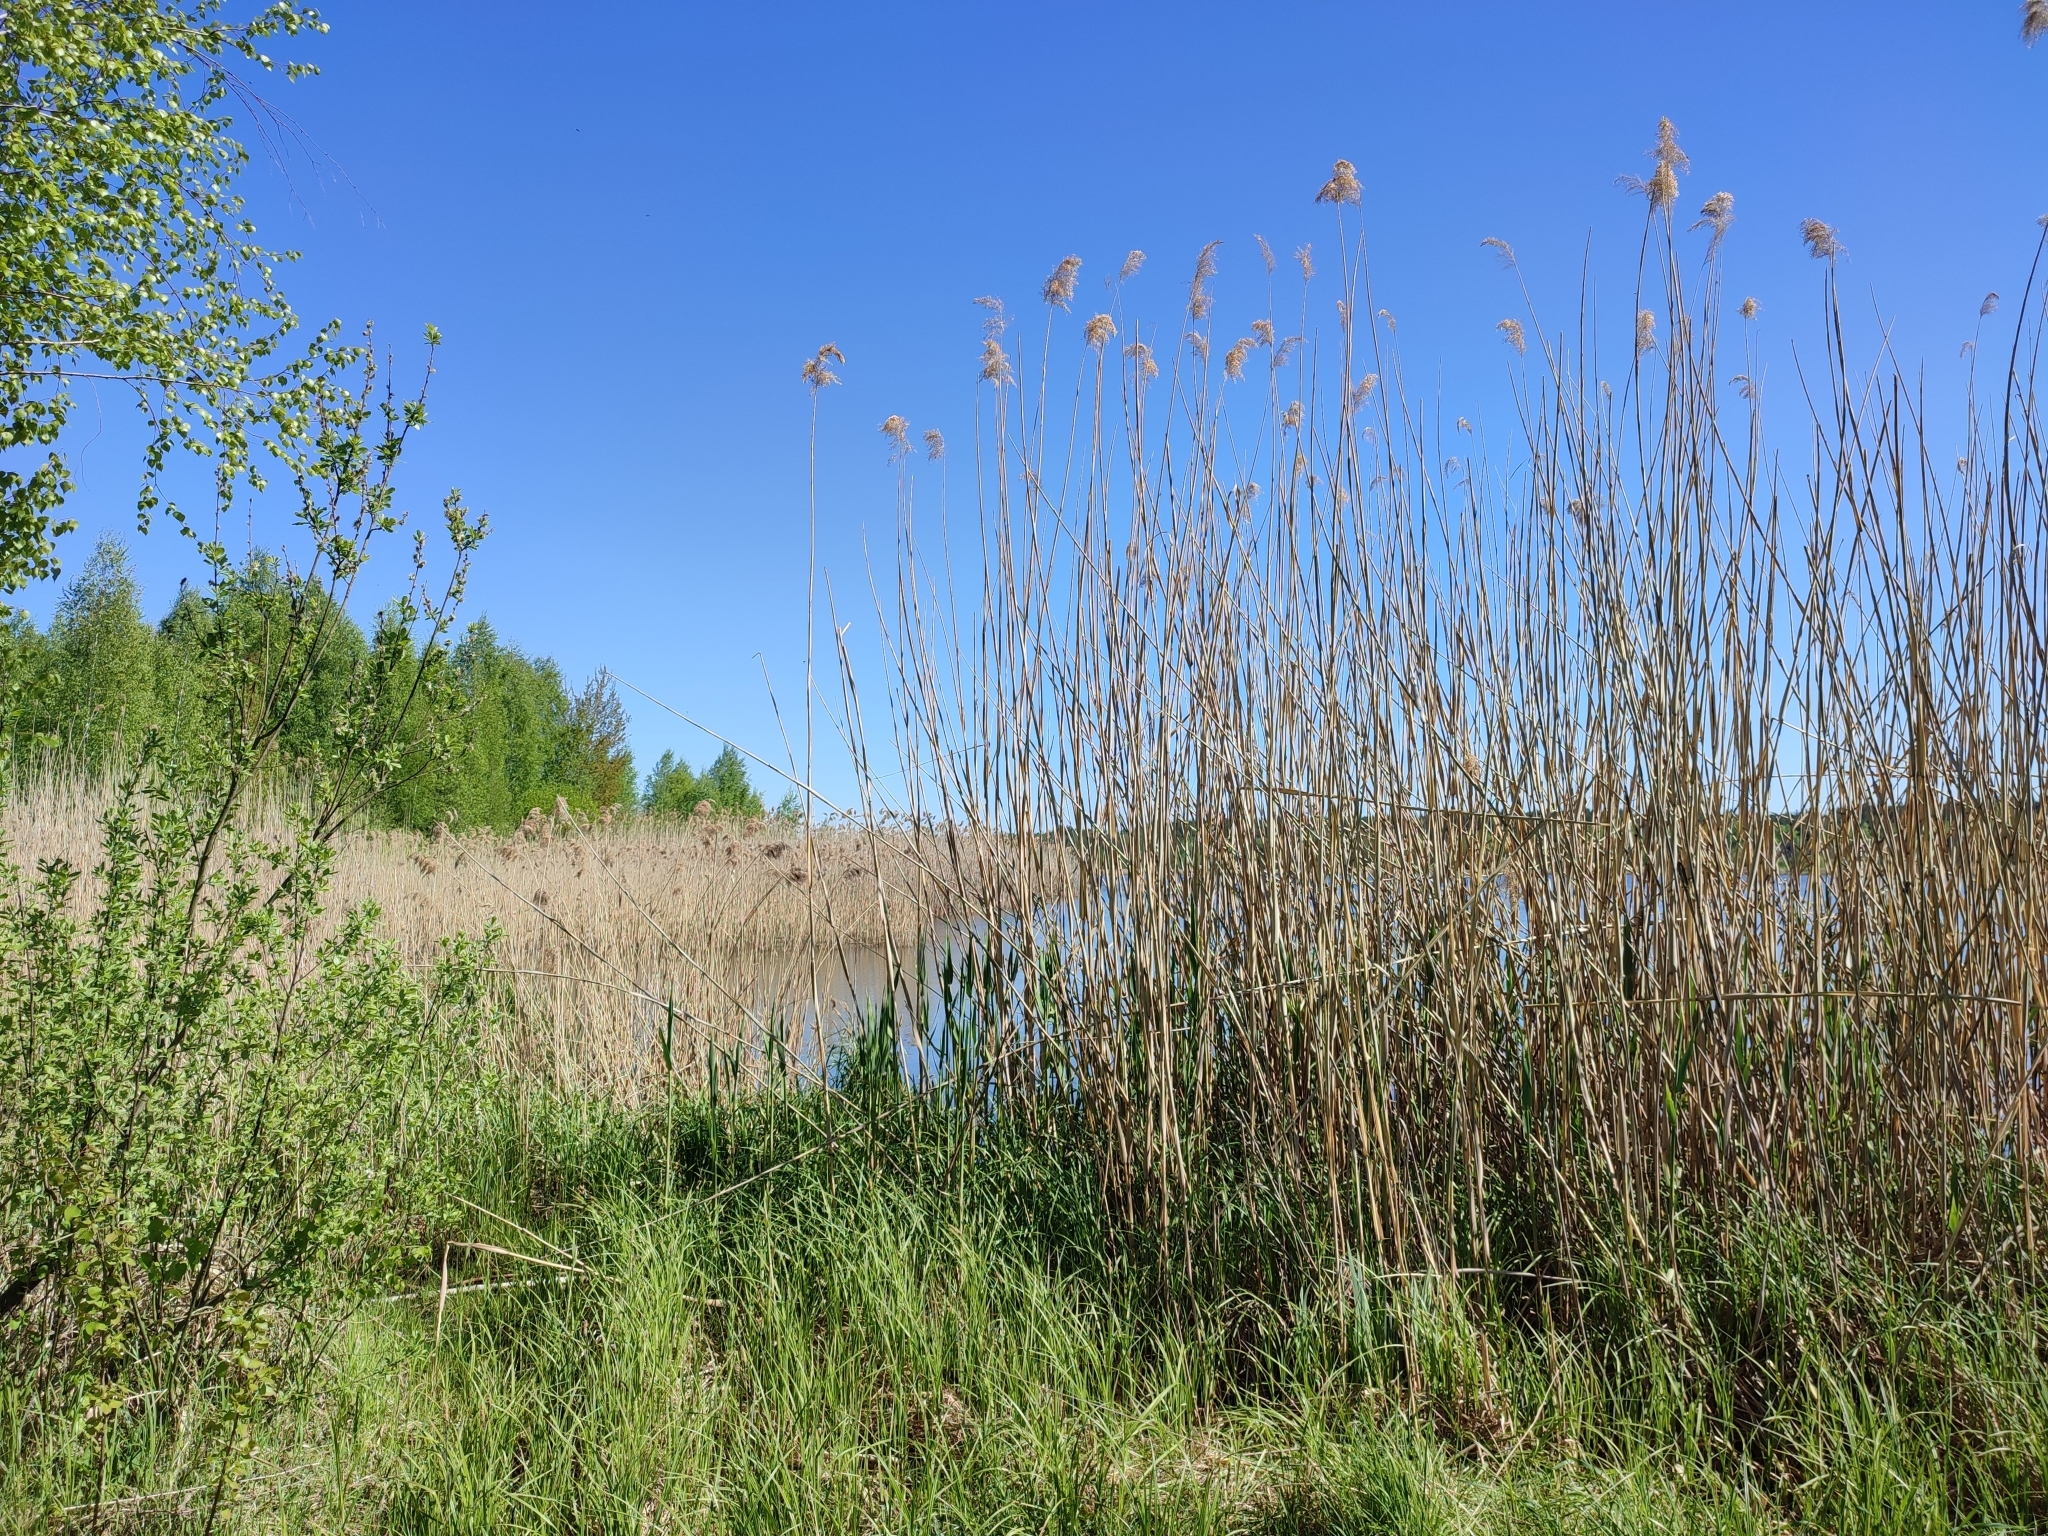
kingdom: Plantae
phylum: Tracheophyta
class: Liliopsida
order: Poales
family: Poaceae
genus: Phragmites
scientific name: Phragmites australis
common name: Common reed
